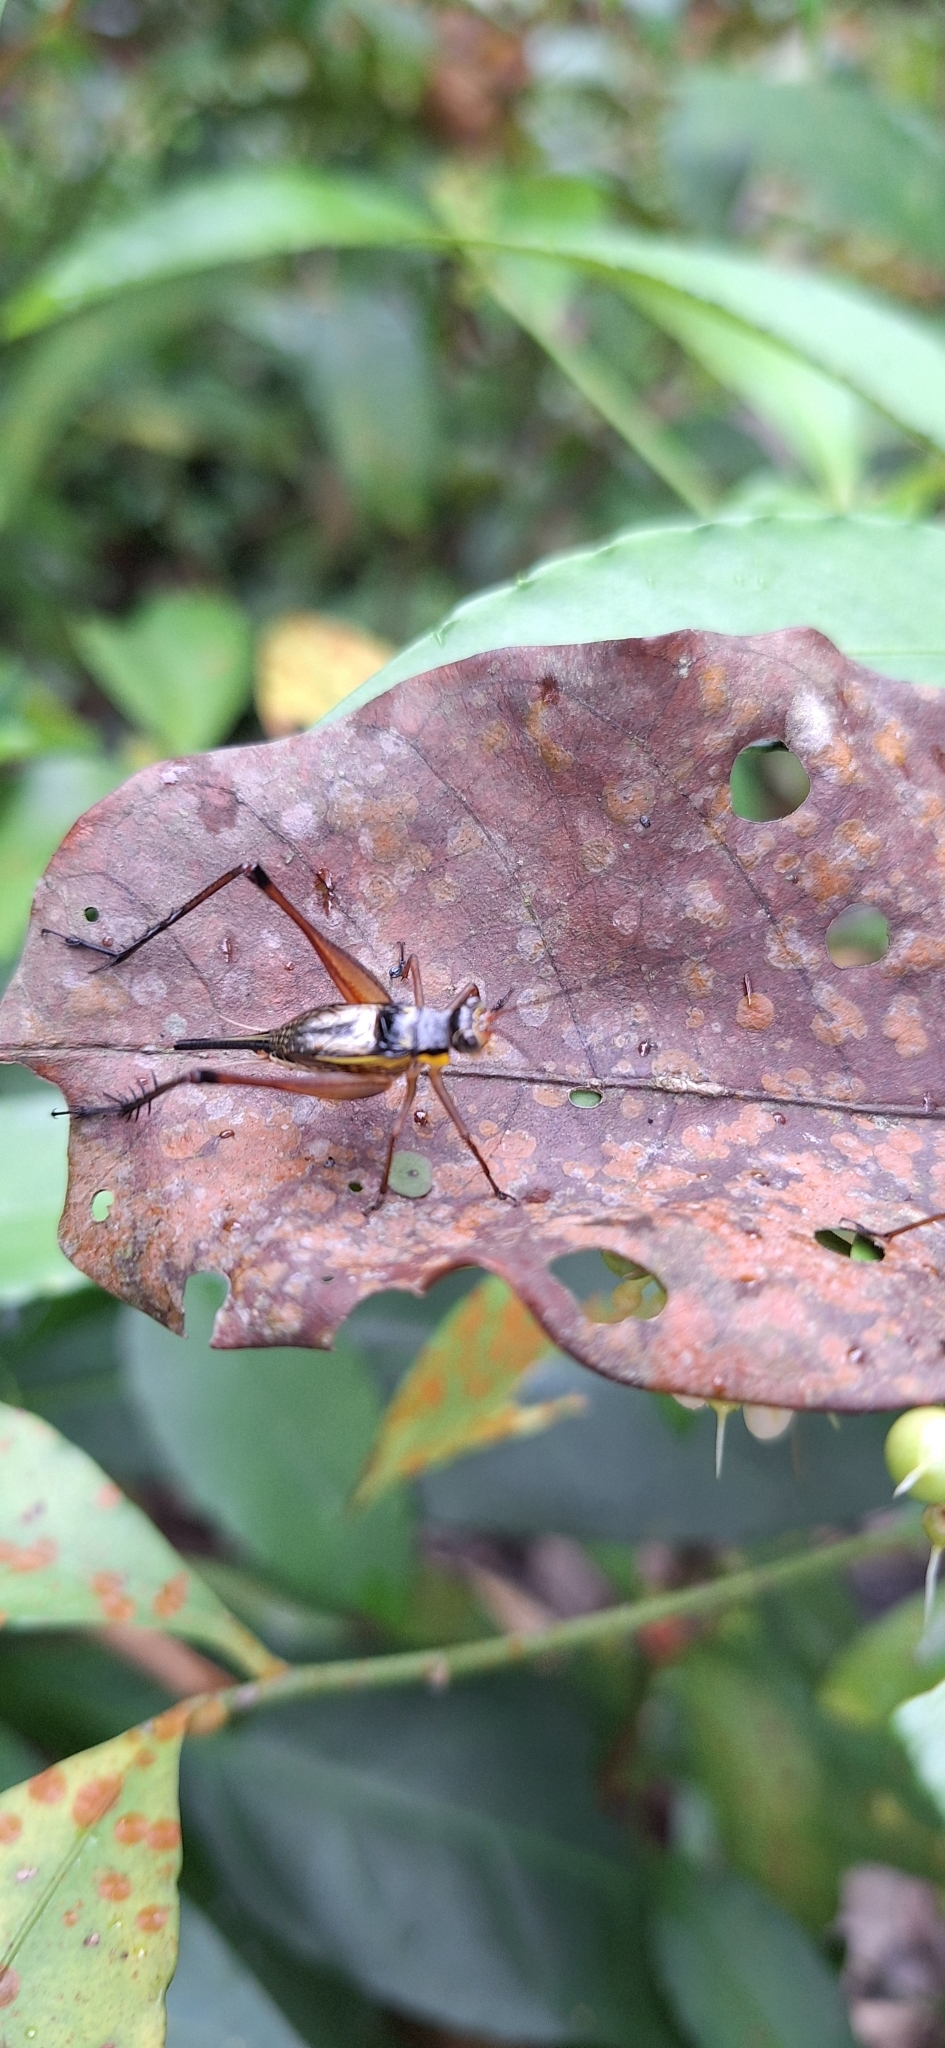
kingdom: Animalia
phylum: Arthropoda
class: Insecta
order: Orthoptera
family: Gryllidae
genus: Nisitrus
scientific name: Nisitrus malaya
